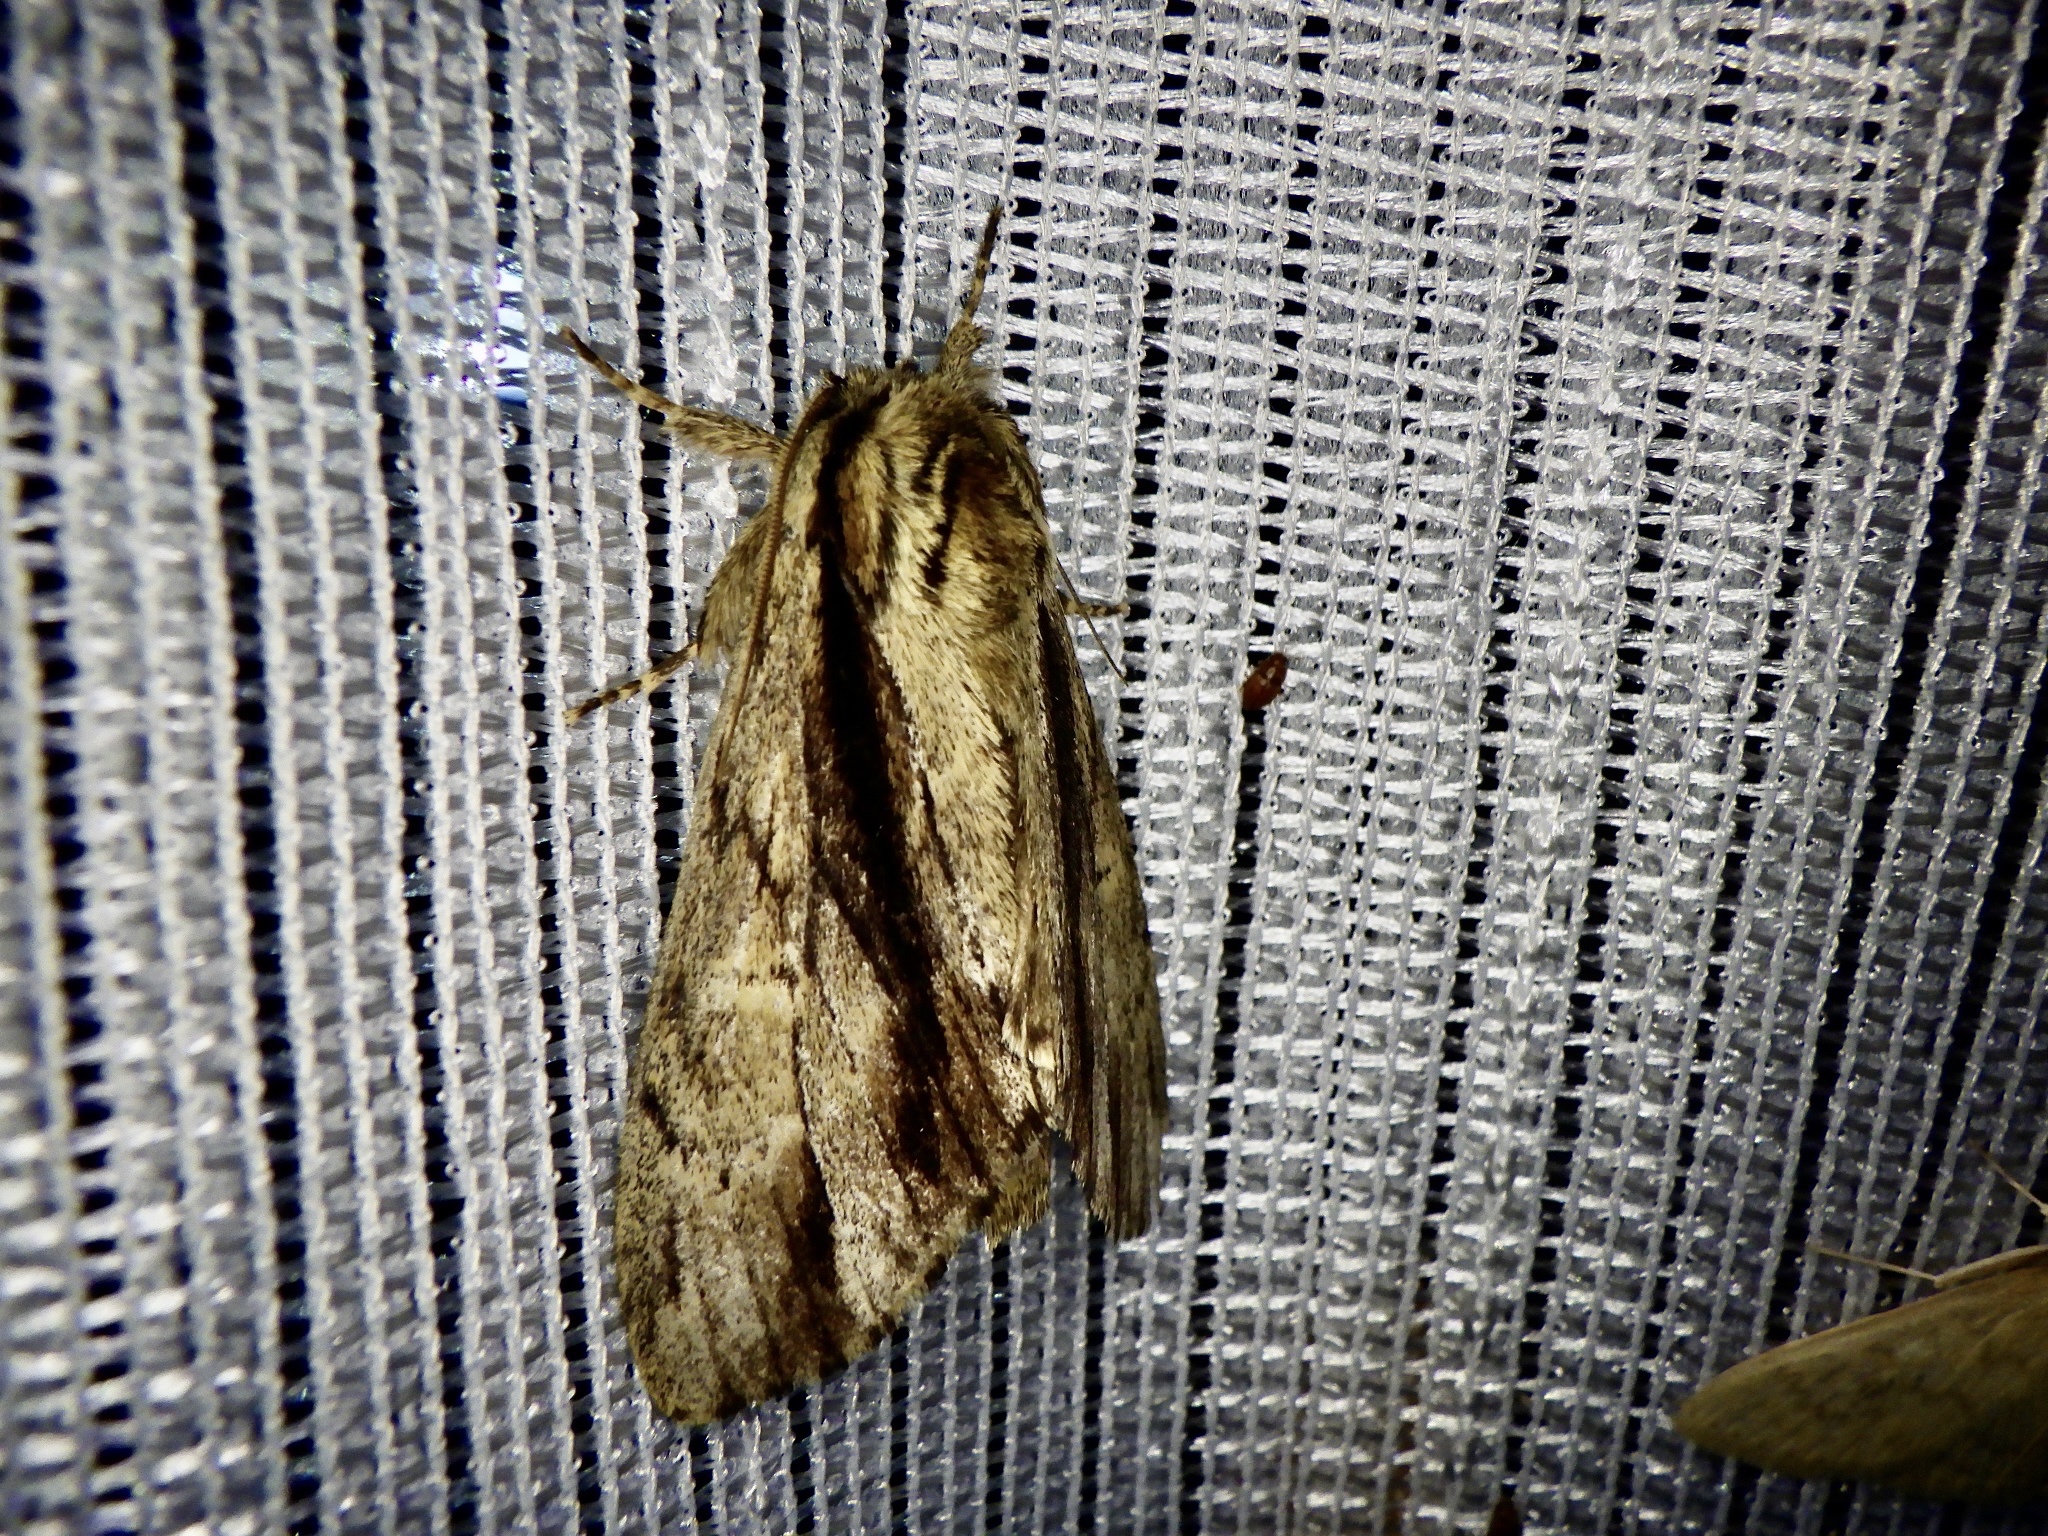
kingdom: Animalia
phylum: Arthropoda
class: Insecta
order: Lepidoptera
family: Notodontidae
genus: Shaka
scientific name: Shaka atrovittatus
